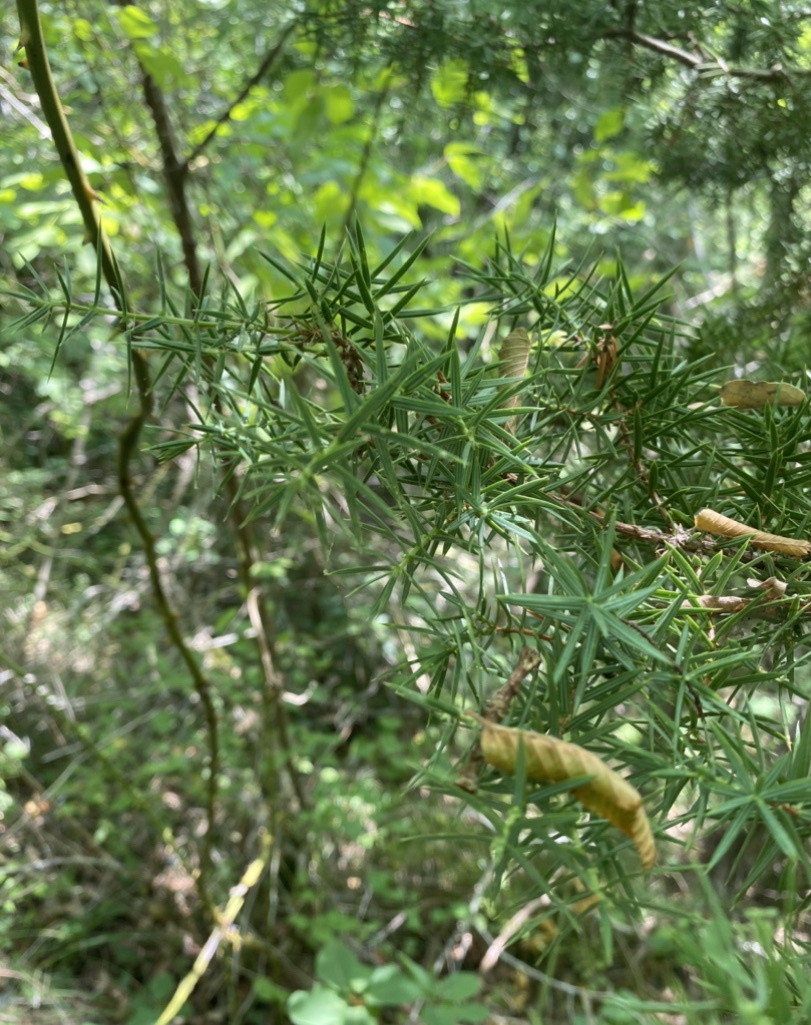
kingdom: Plantae
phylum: Tracheophyta
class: Pinopsida
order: Pinales
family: Cupressaceae
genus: Juniperus
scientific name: Juniperus oxycedrus
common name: Prickly juniper
